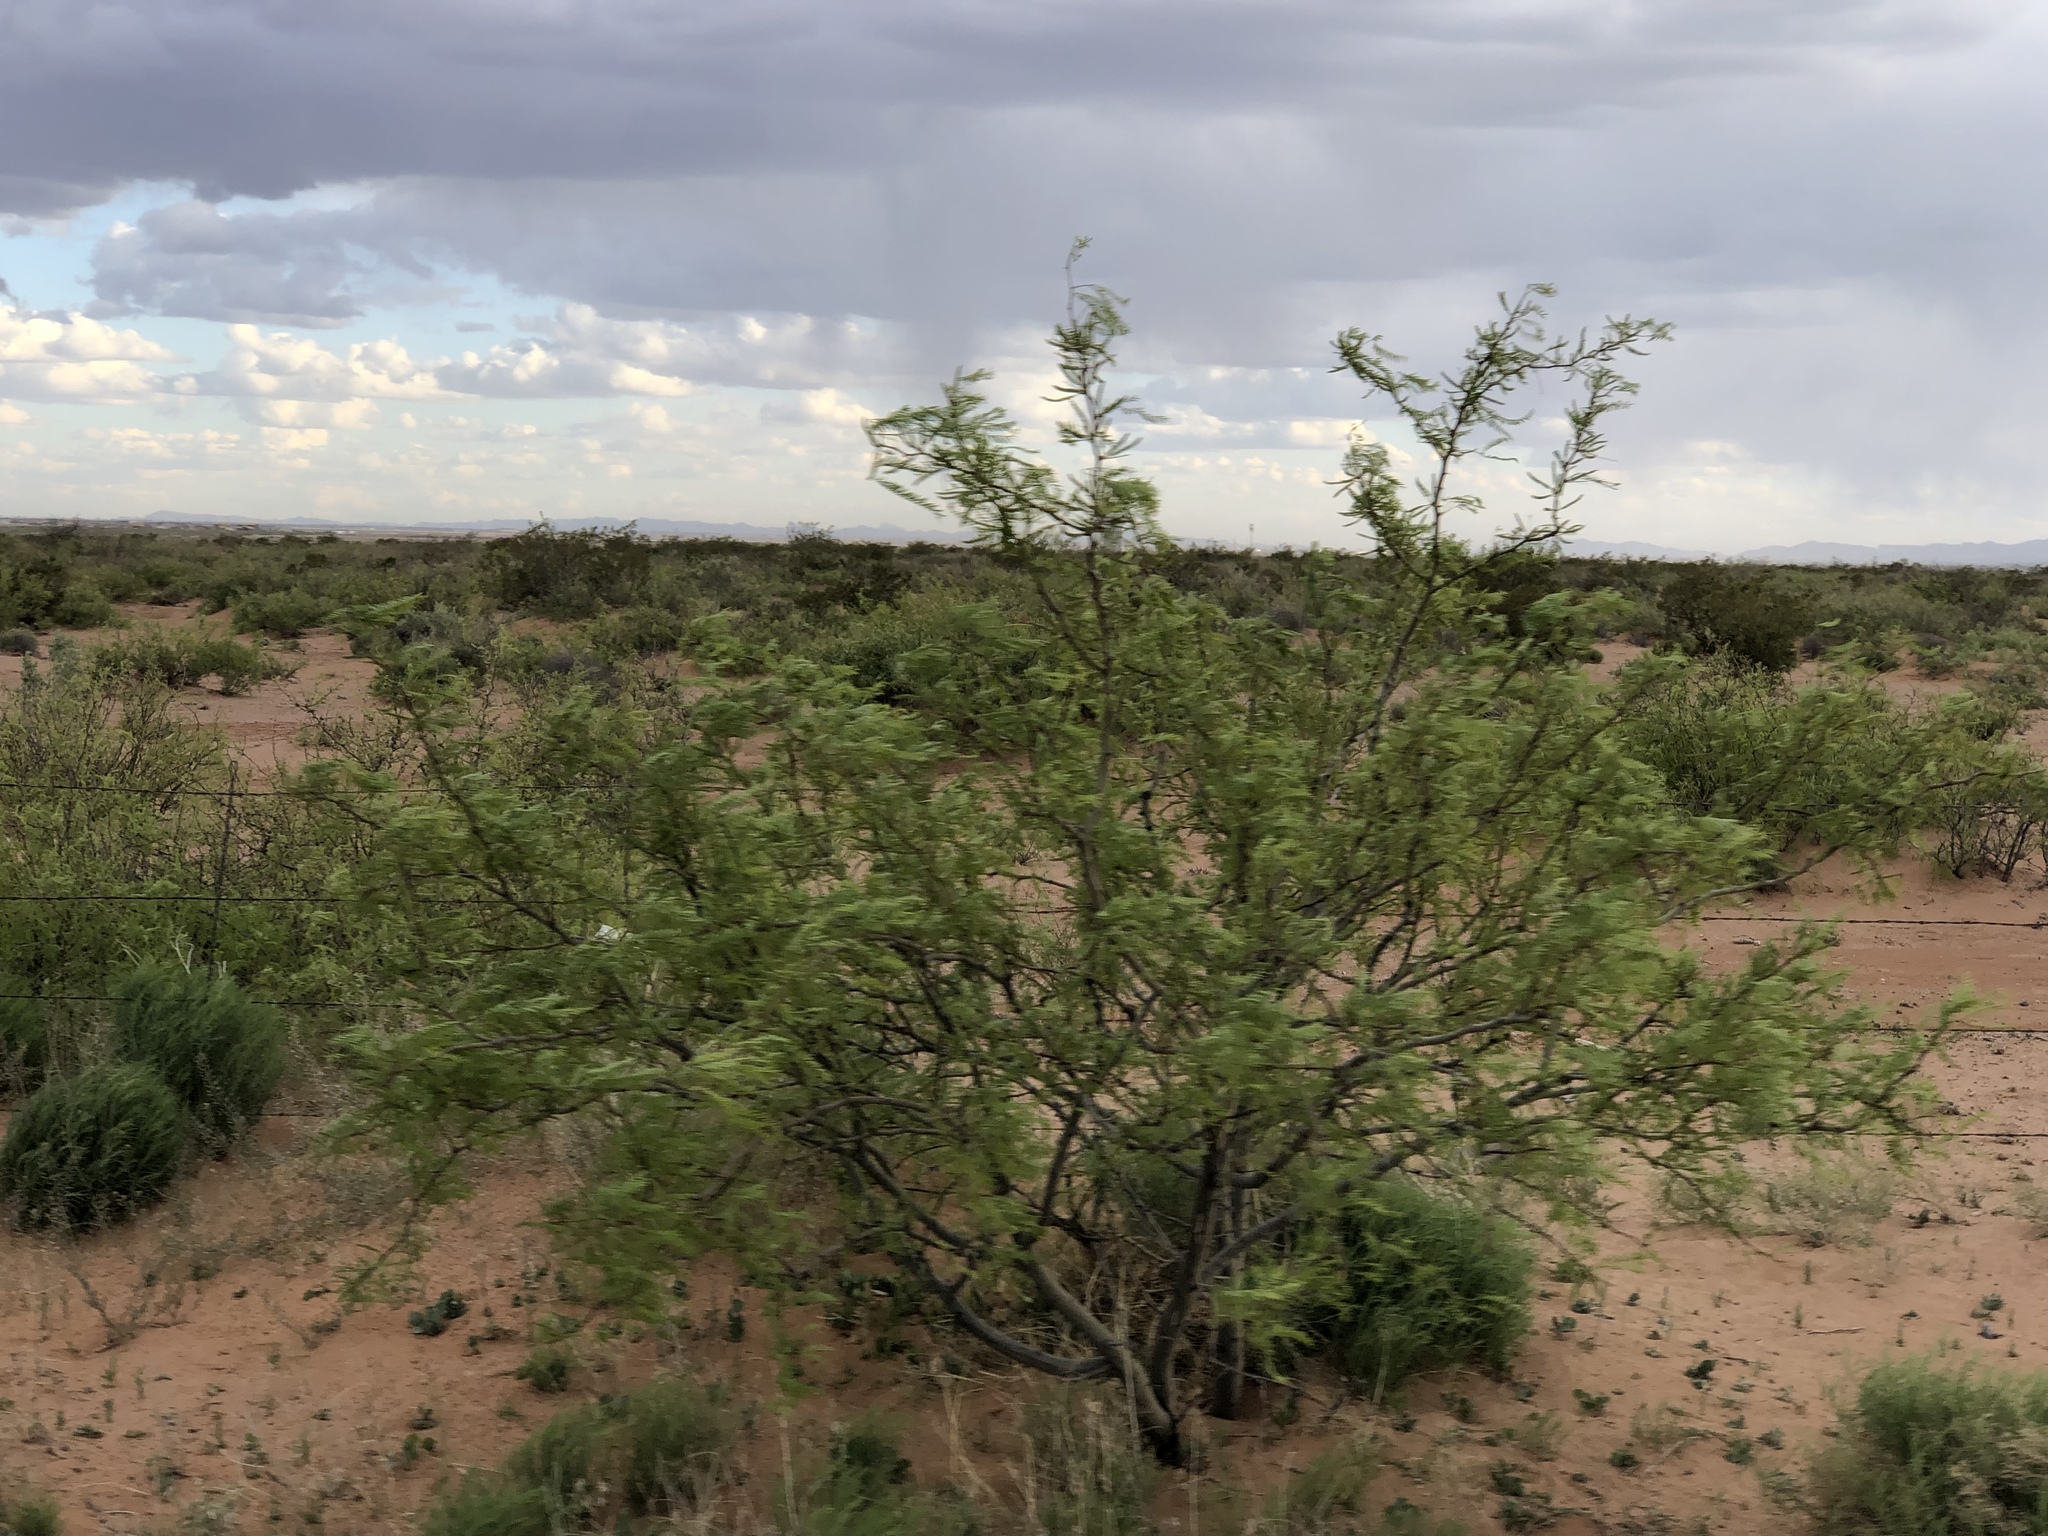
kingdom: Plantae
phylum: Tracheophyta
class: Magnoliopsida
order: Fabales
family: Fabaceae
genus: Prosopis
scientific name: Prosopis glandulosa
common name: Honey mesquite
